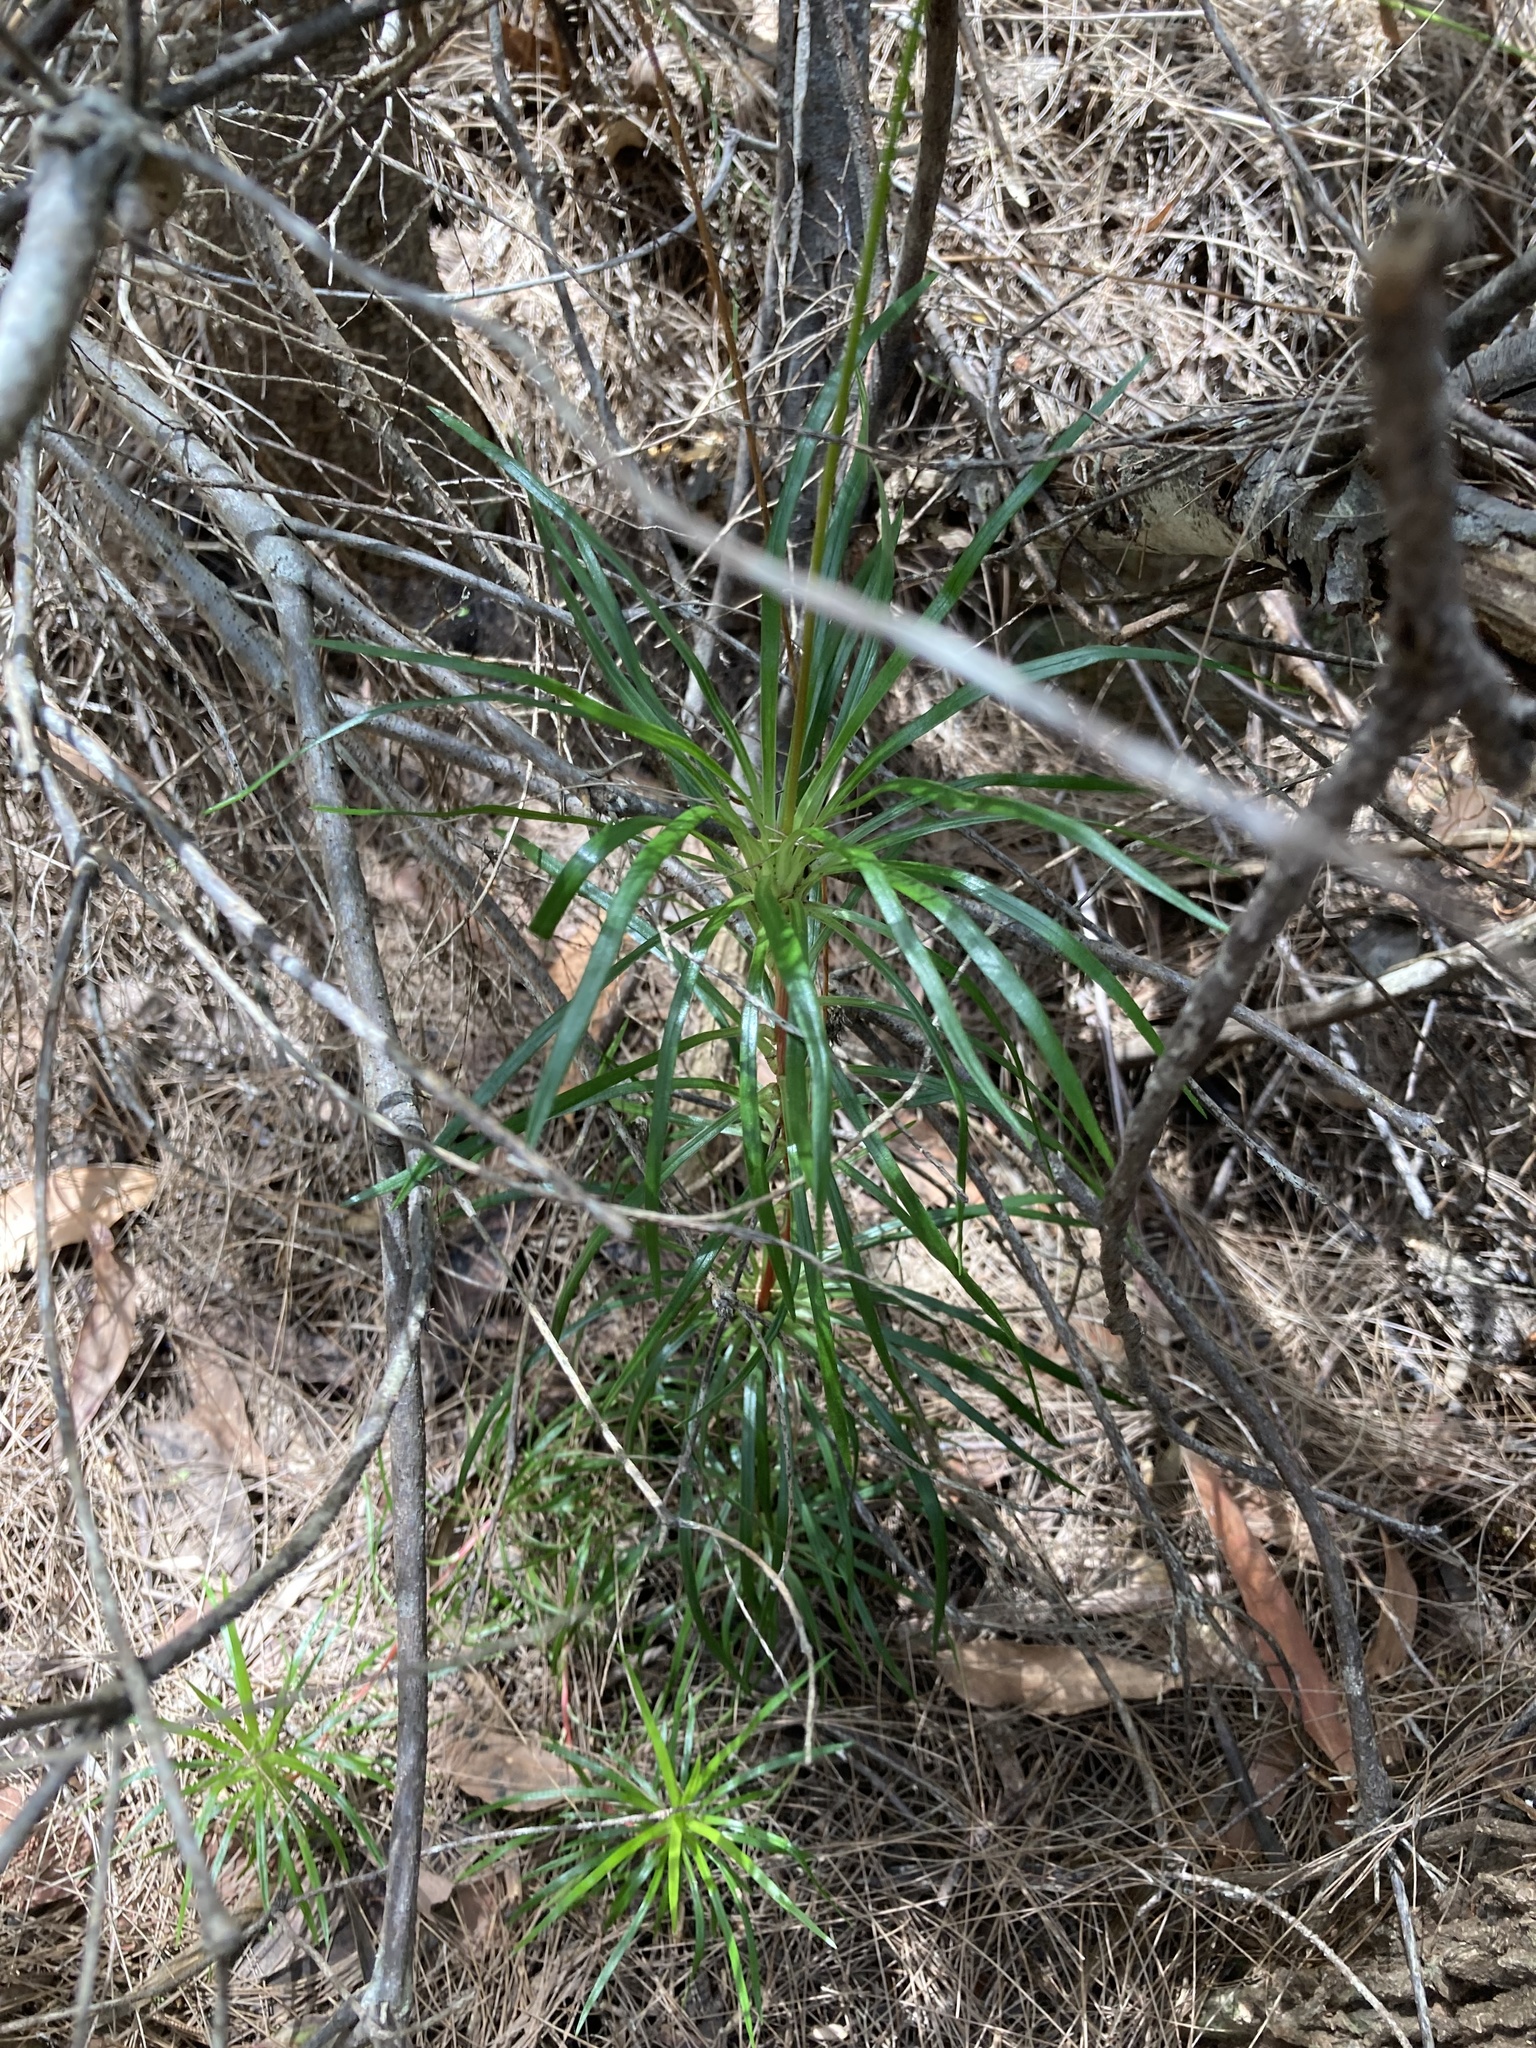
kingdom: Plantae
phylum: Tracheophyta
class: Magnoliopsida
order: Asterales
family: Stylidiaceae
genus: Stylidium
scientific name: Stylidium productum
